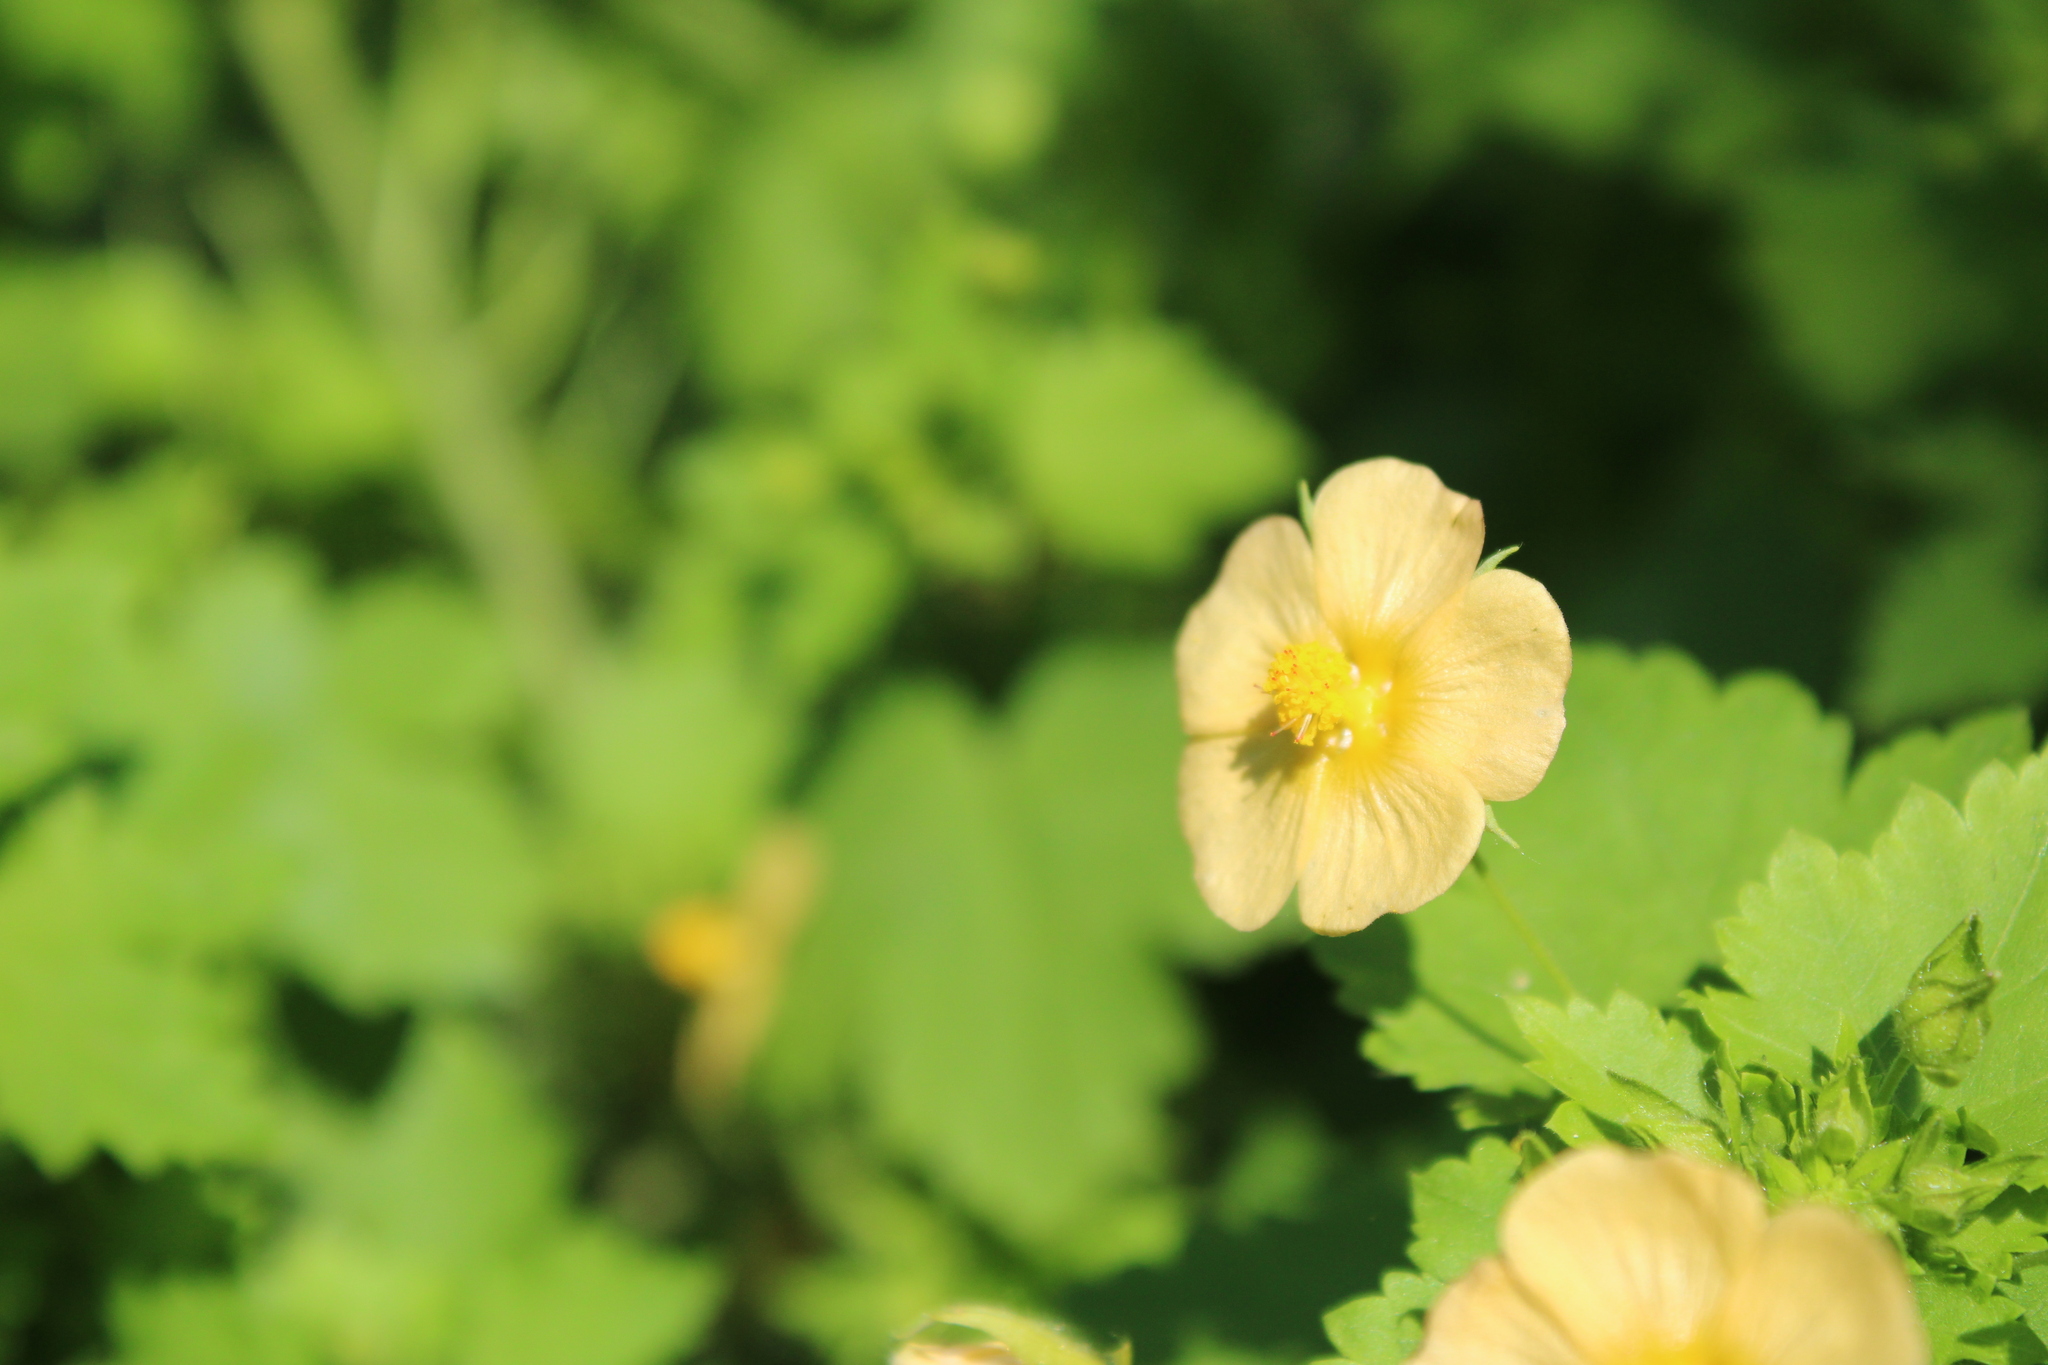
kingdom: Plantae
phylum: Tracheophyta
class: Magnoliopsida
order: Malvales
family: Malvaceae
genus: Modiolastrum
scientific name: Modiolastrum malvifolium
